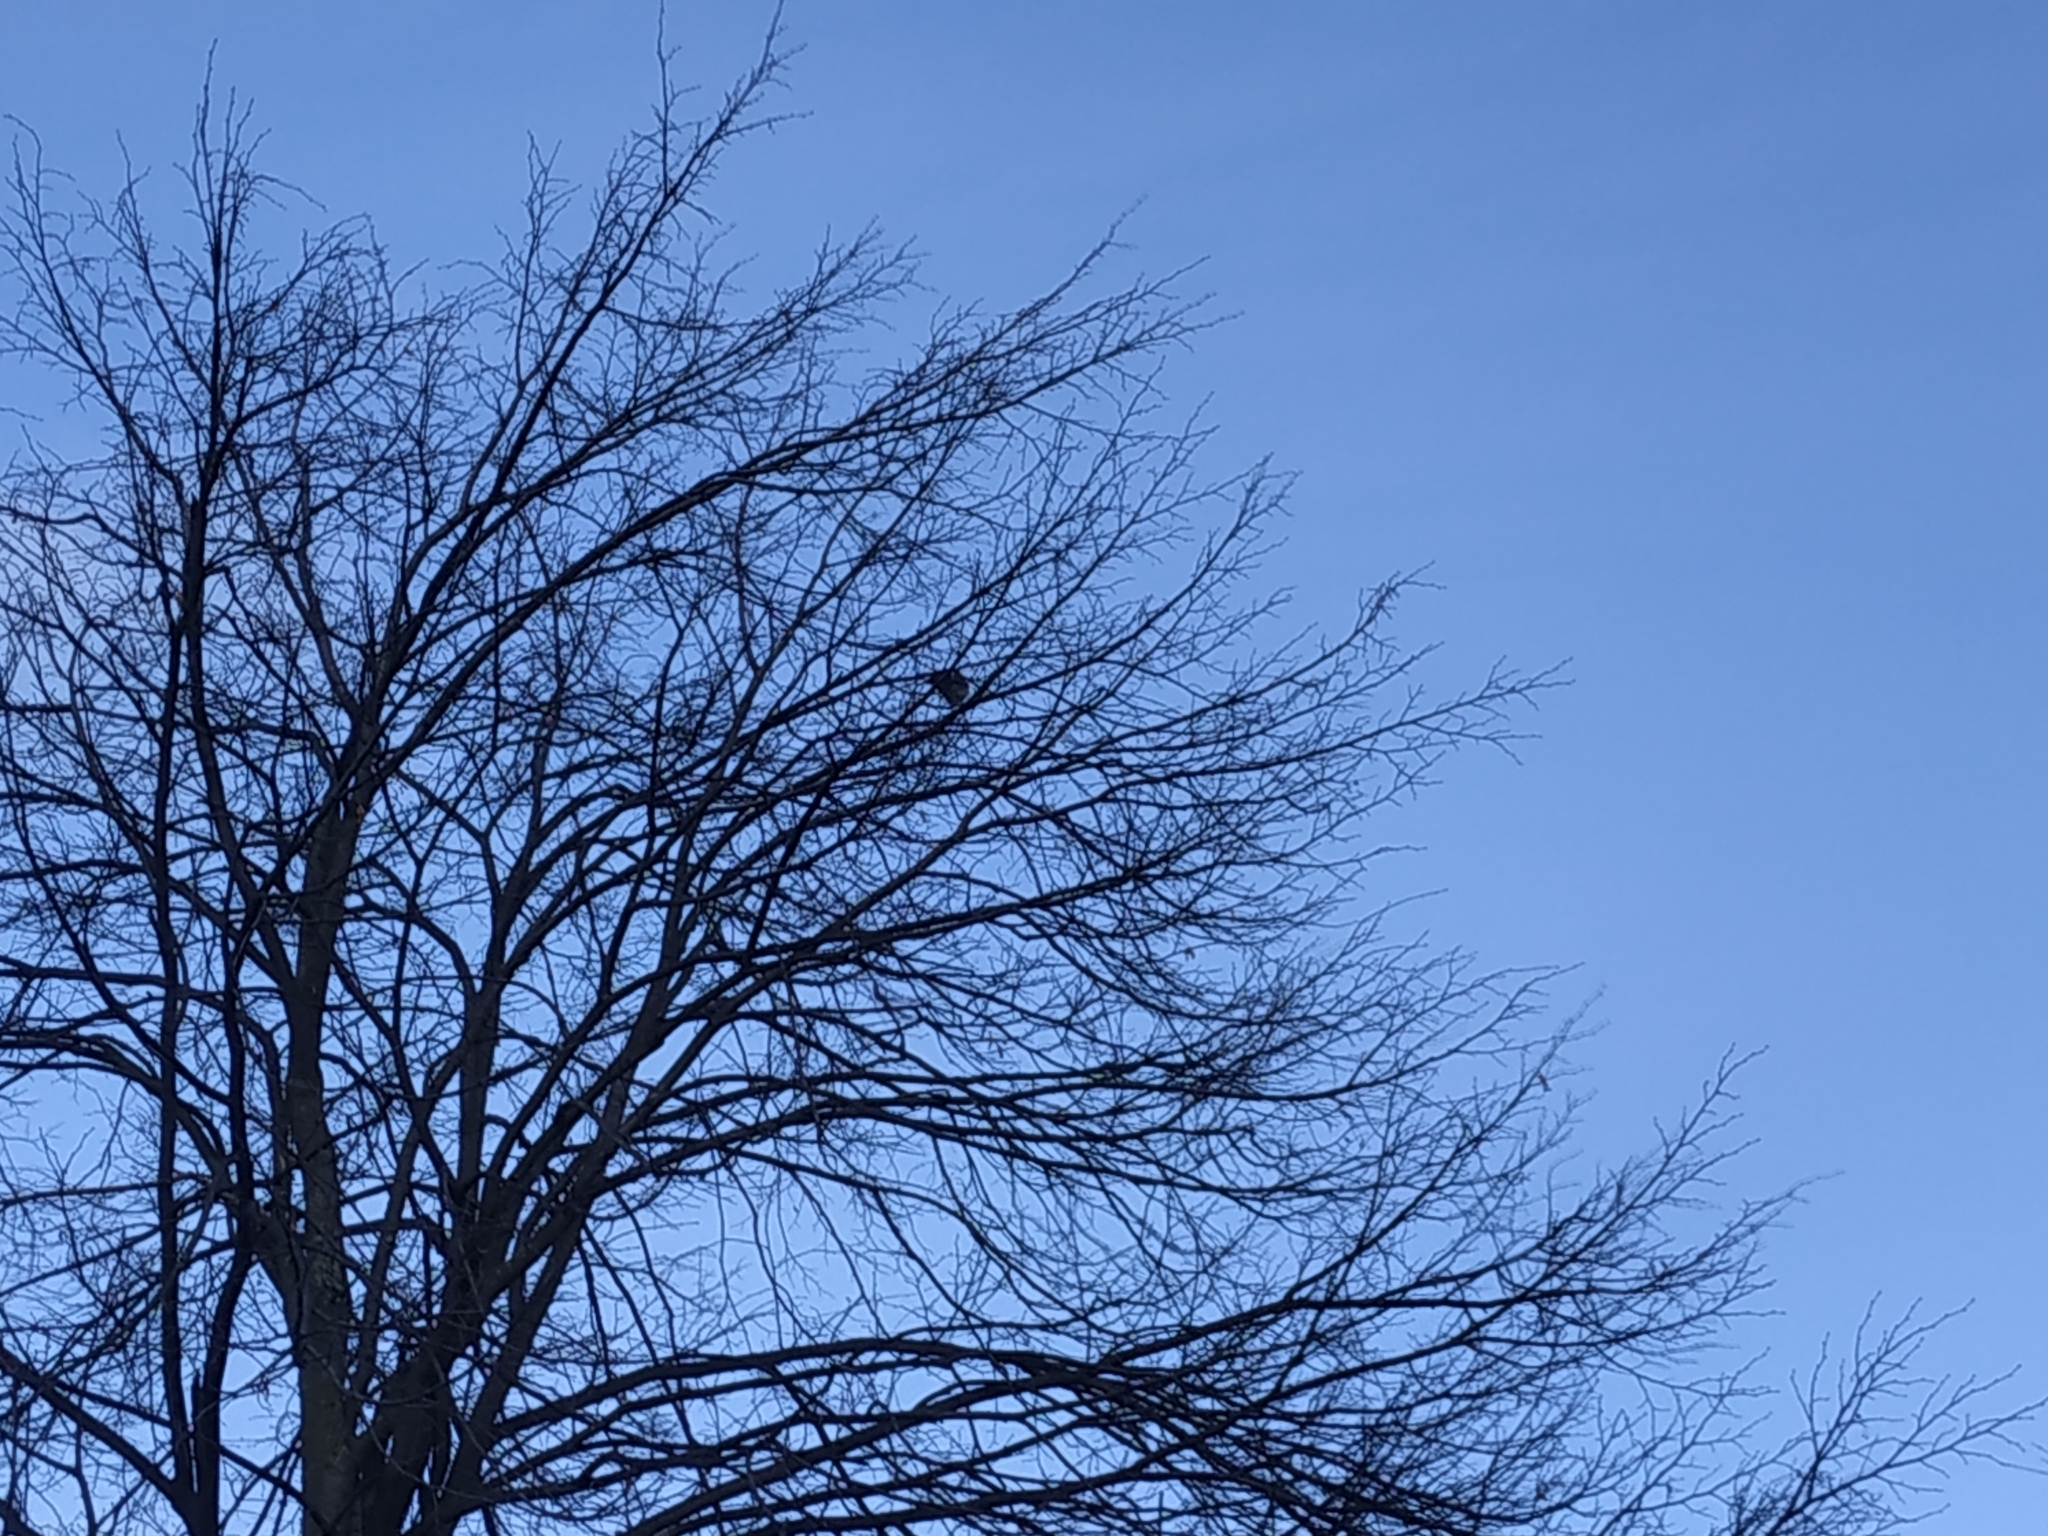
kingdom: Animalia
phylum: Chordata
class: Aves
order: Passeriformes
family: Turdidae
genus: Turdus
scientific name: Turdus pilaris
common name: Fieldfare
